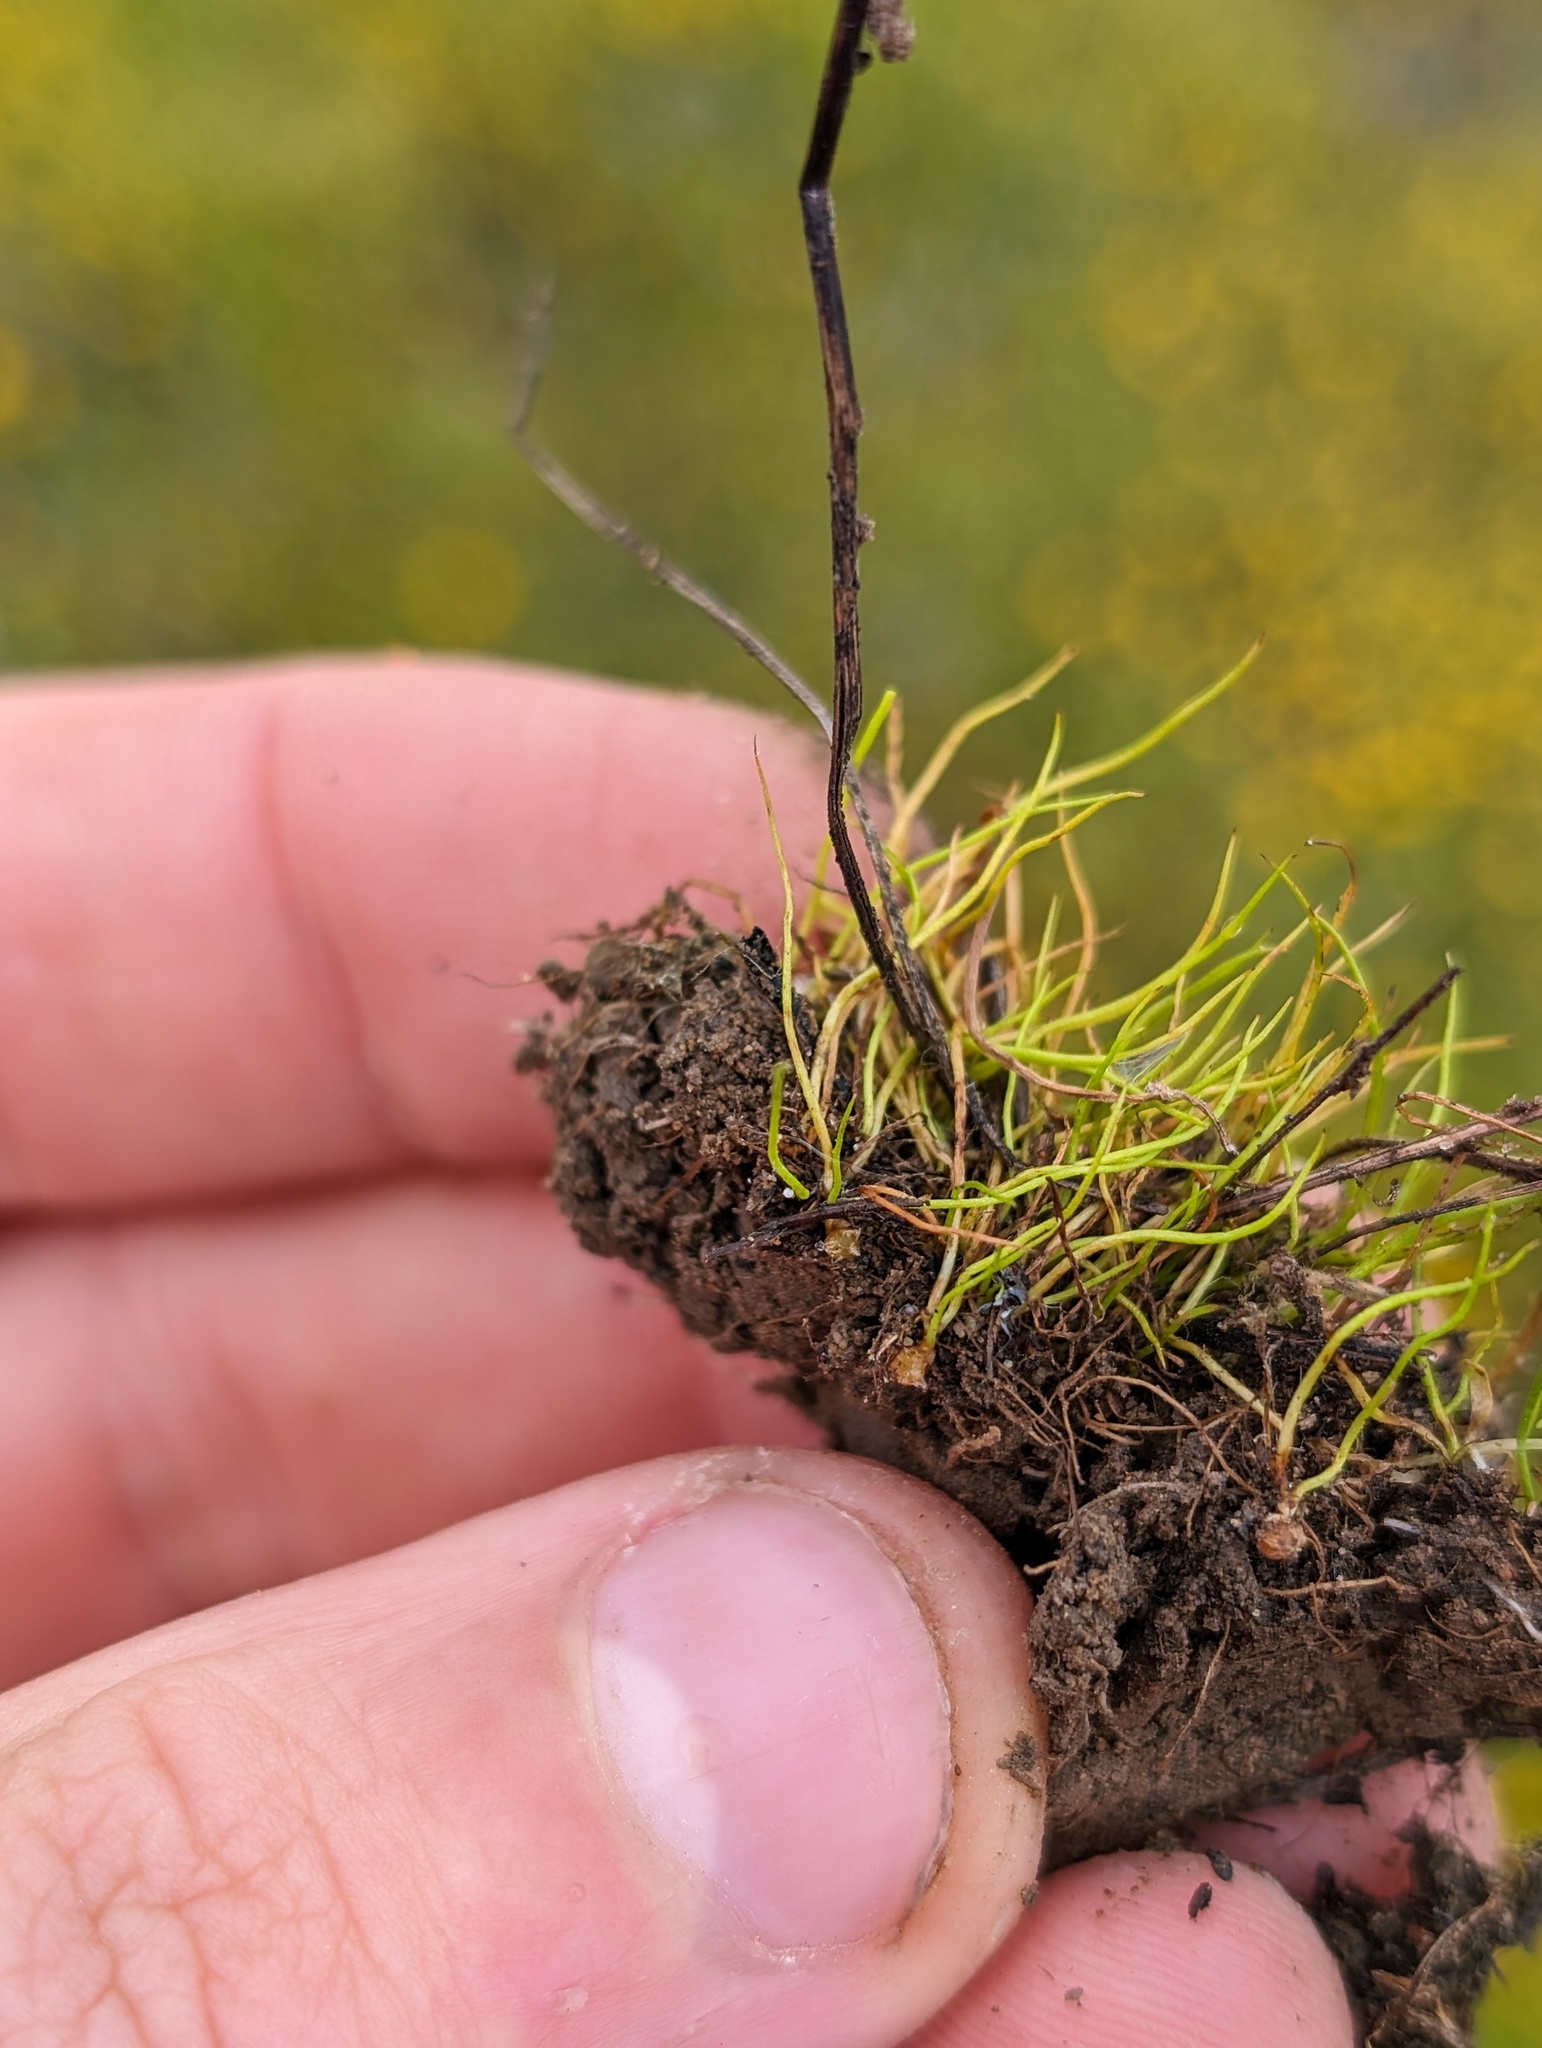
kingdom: Plantae
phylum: Tracheophyta
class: Polypodiopsida
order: Salviniales
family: Marsileaceae
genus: Pilularia
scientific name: Pilularia americana
